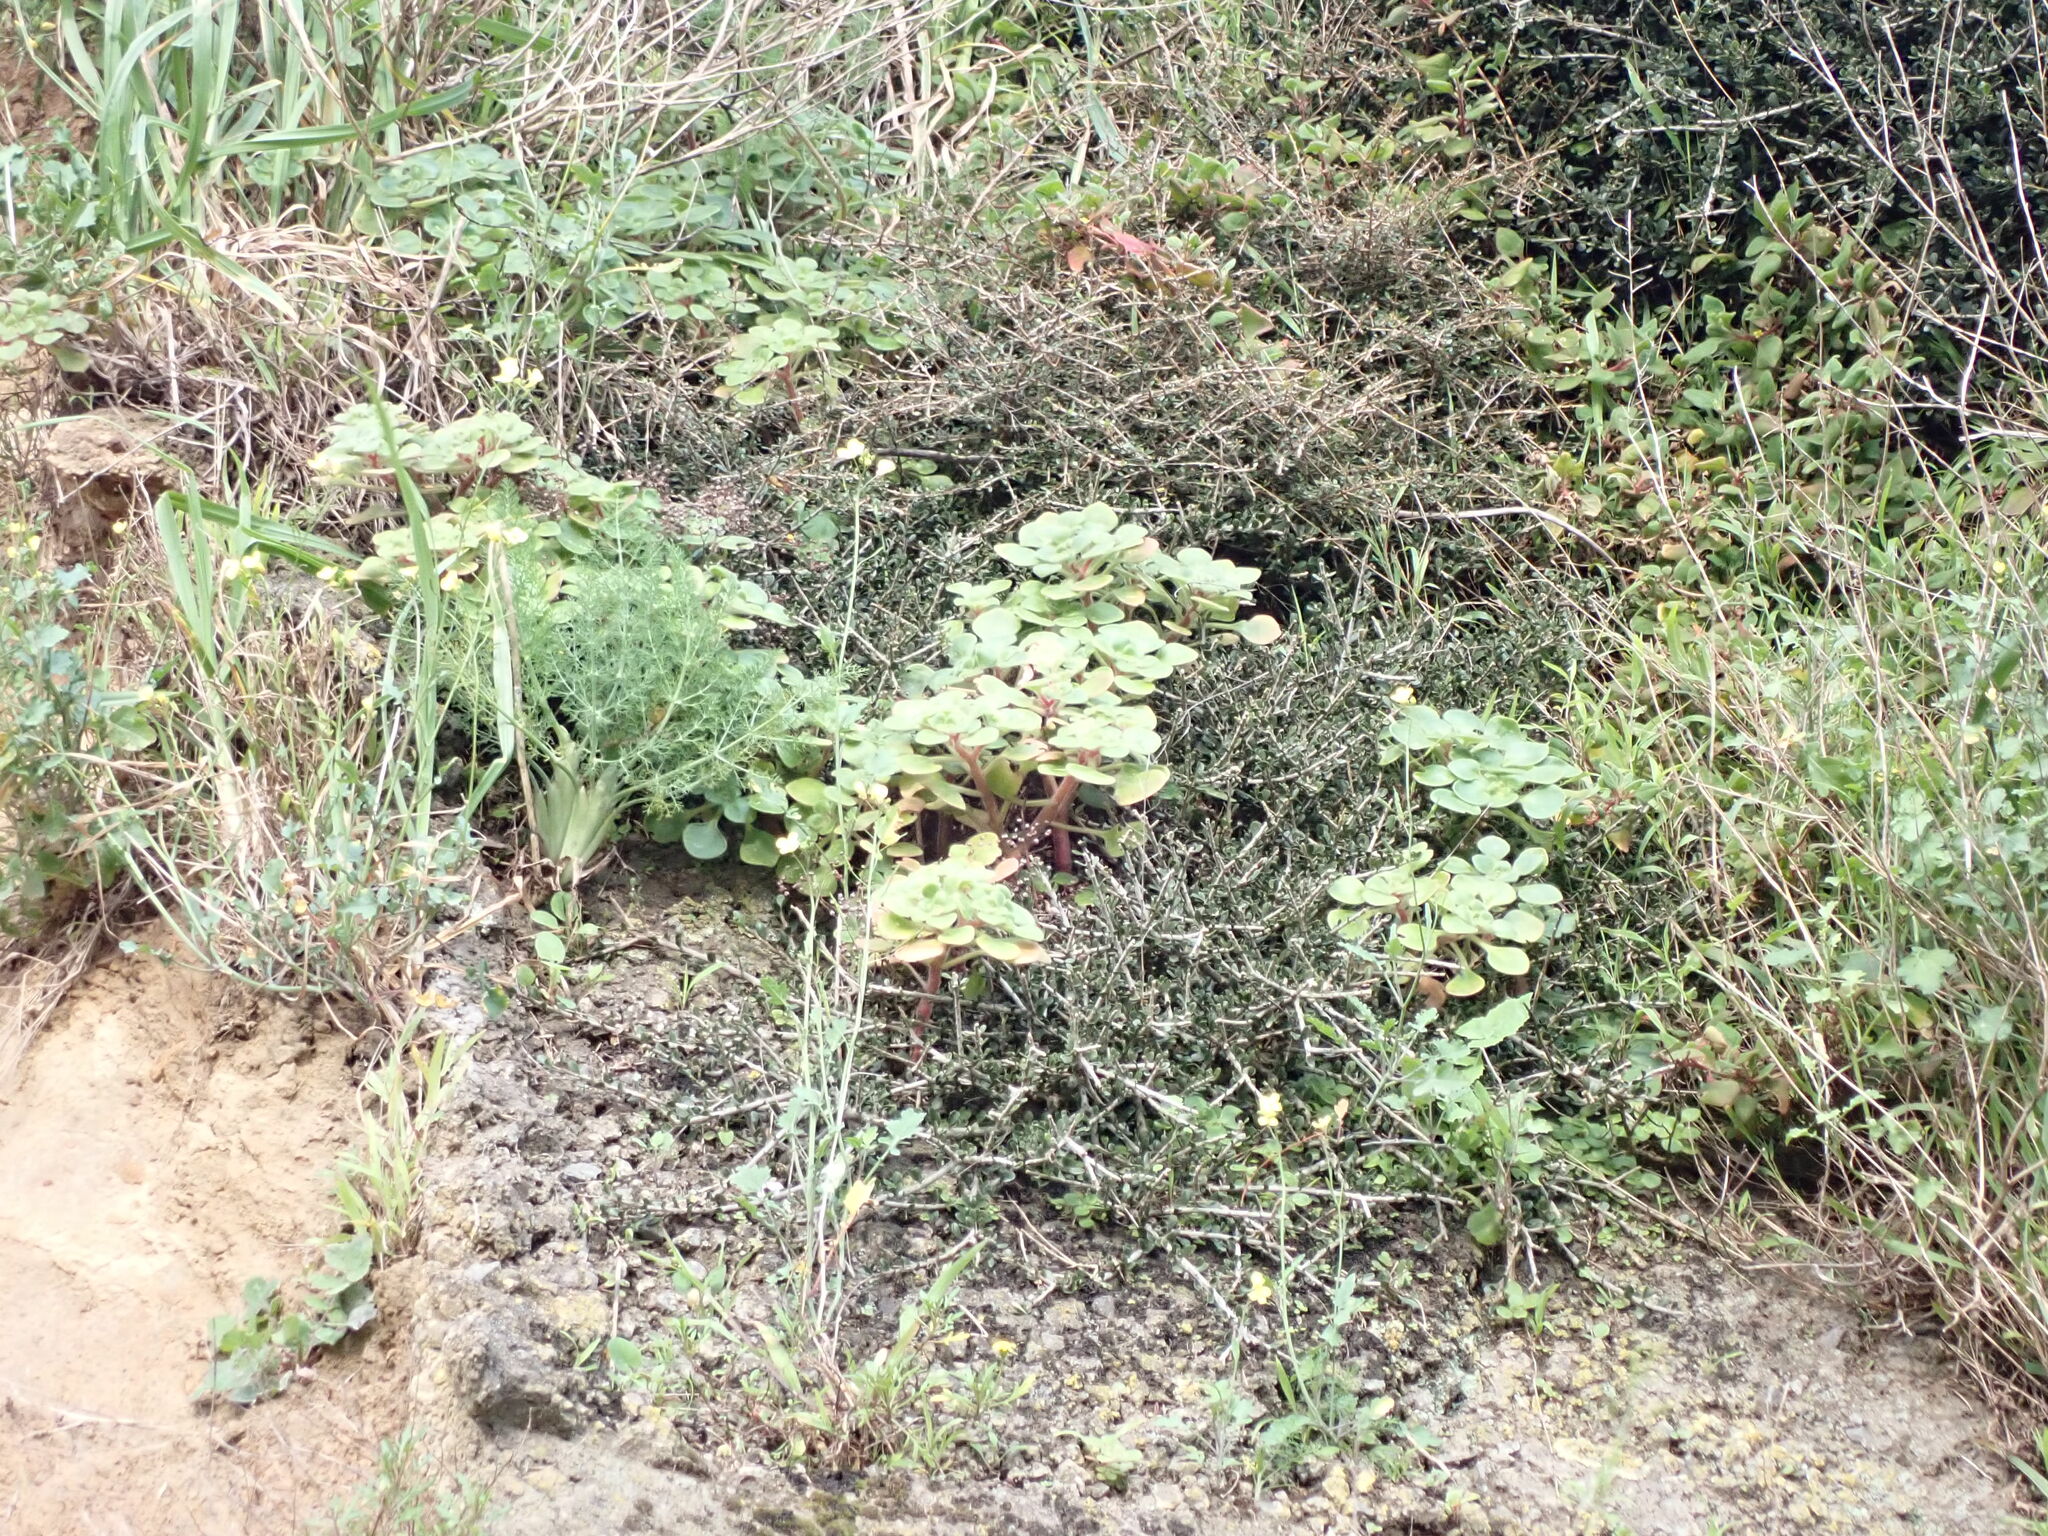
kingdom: Plantae
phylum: Tracheophyta
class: Magnoliopsida
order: Saxifragales
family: Crassulaceae
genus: Aichryson
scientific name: Aichryson laxum
